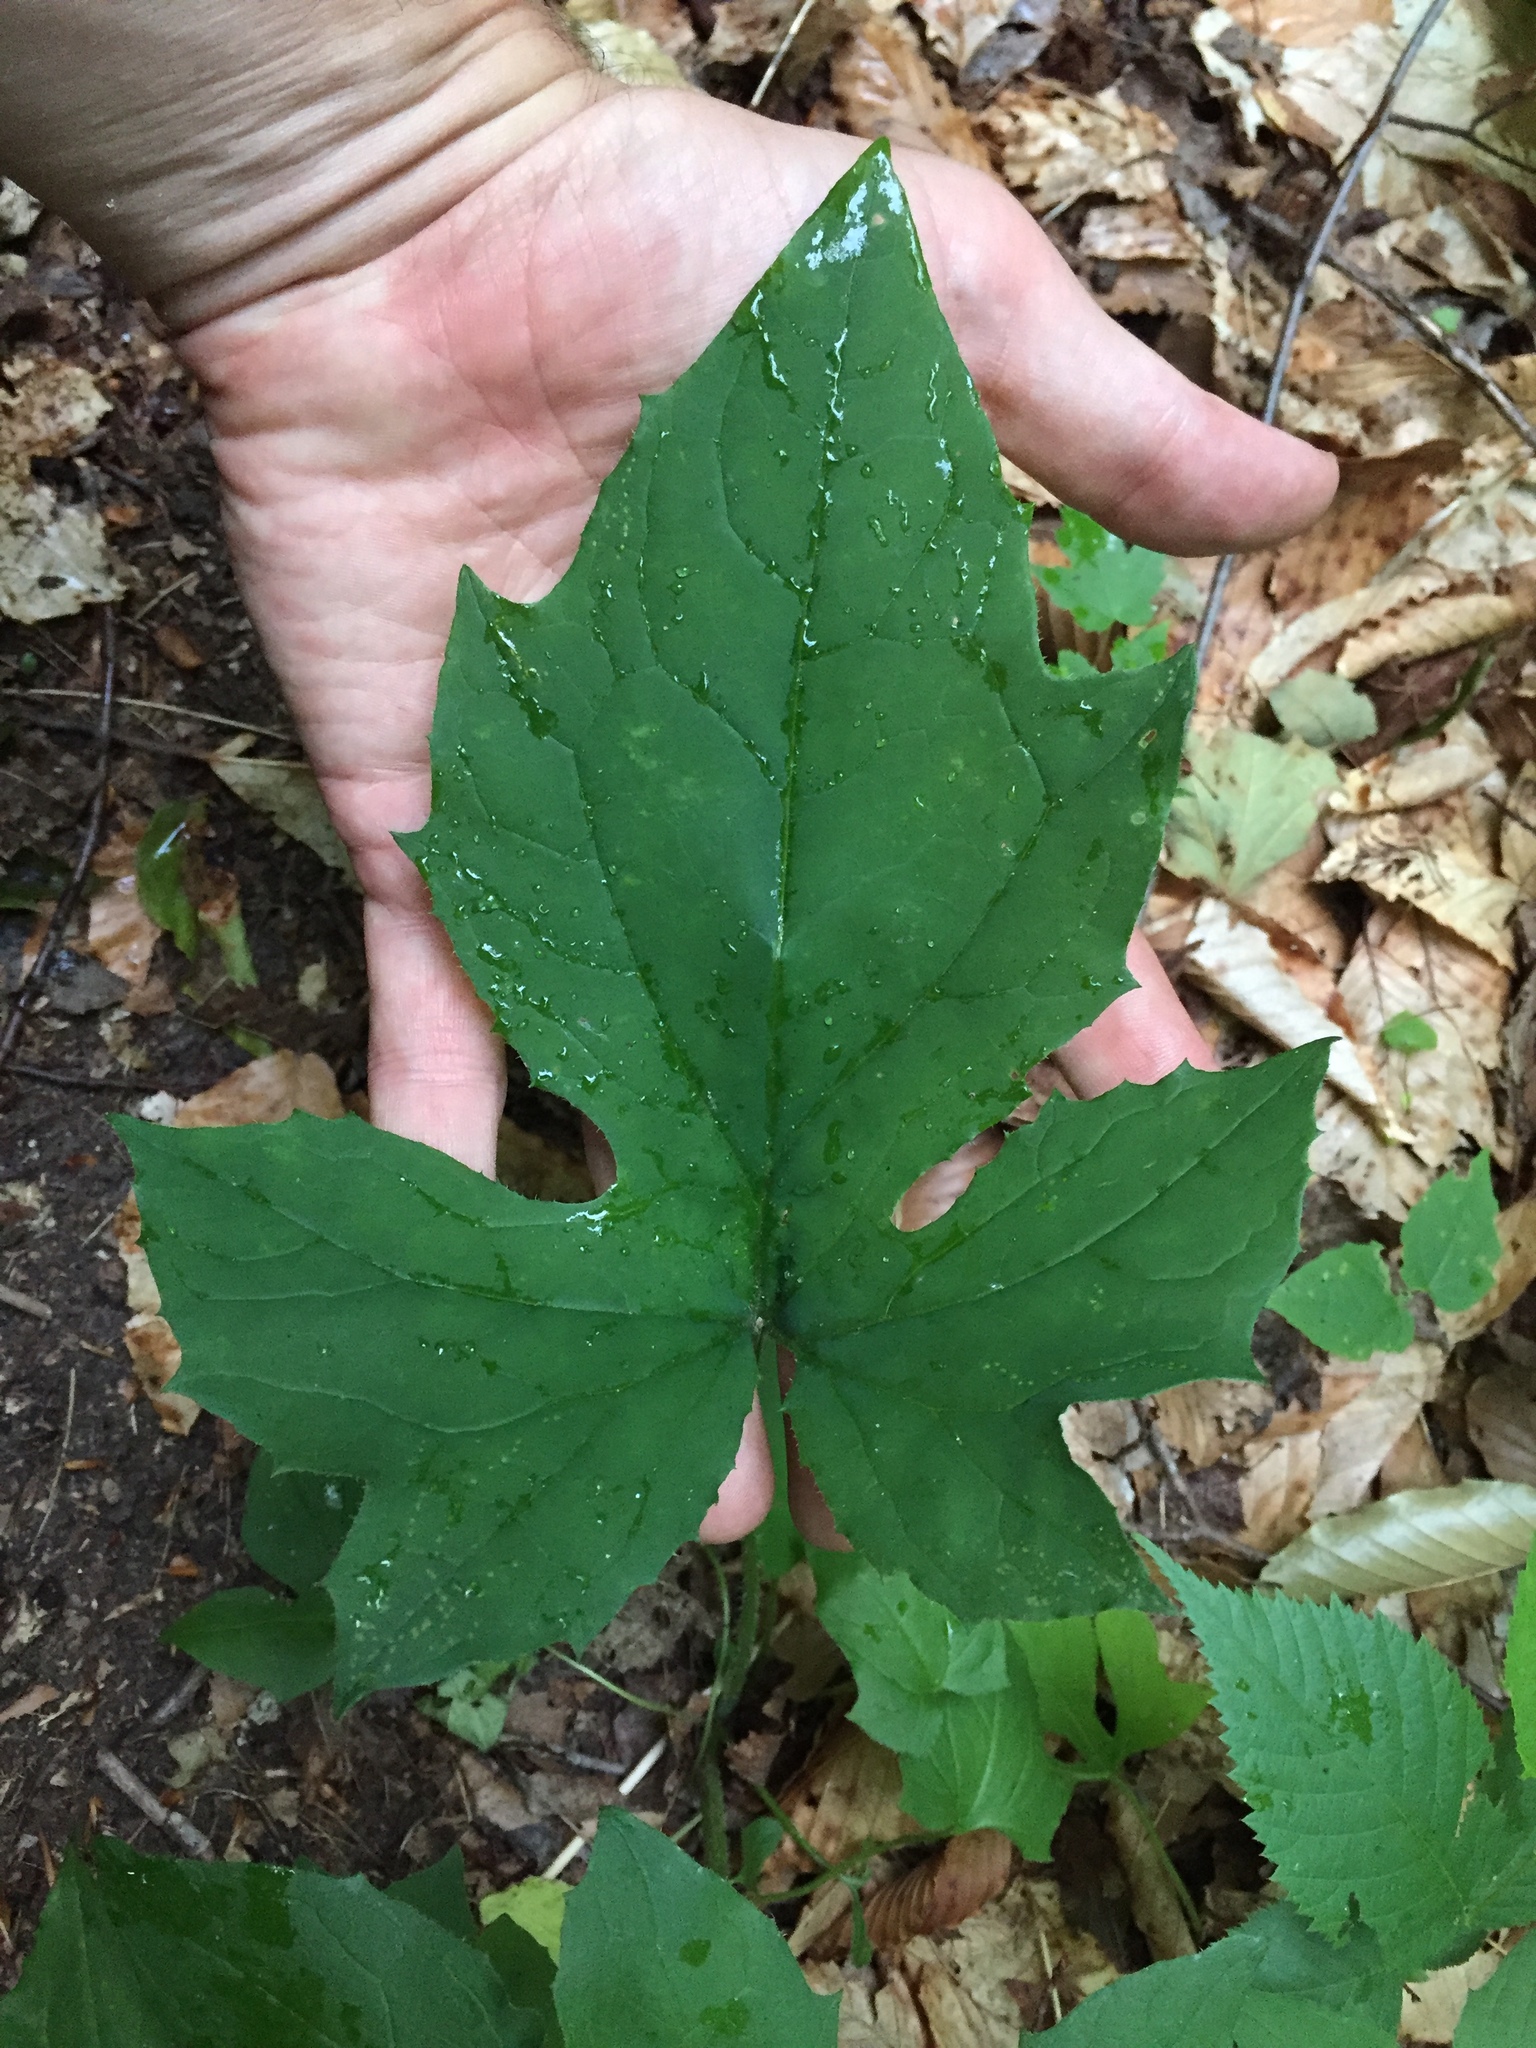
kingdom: Plantae
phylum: Tracheophyta
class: Magnoliopsida
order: Asterales
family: Asteraceae
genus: Nabalus
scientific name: Nabalus
